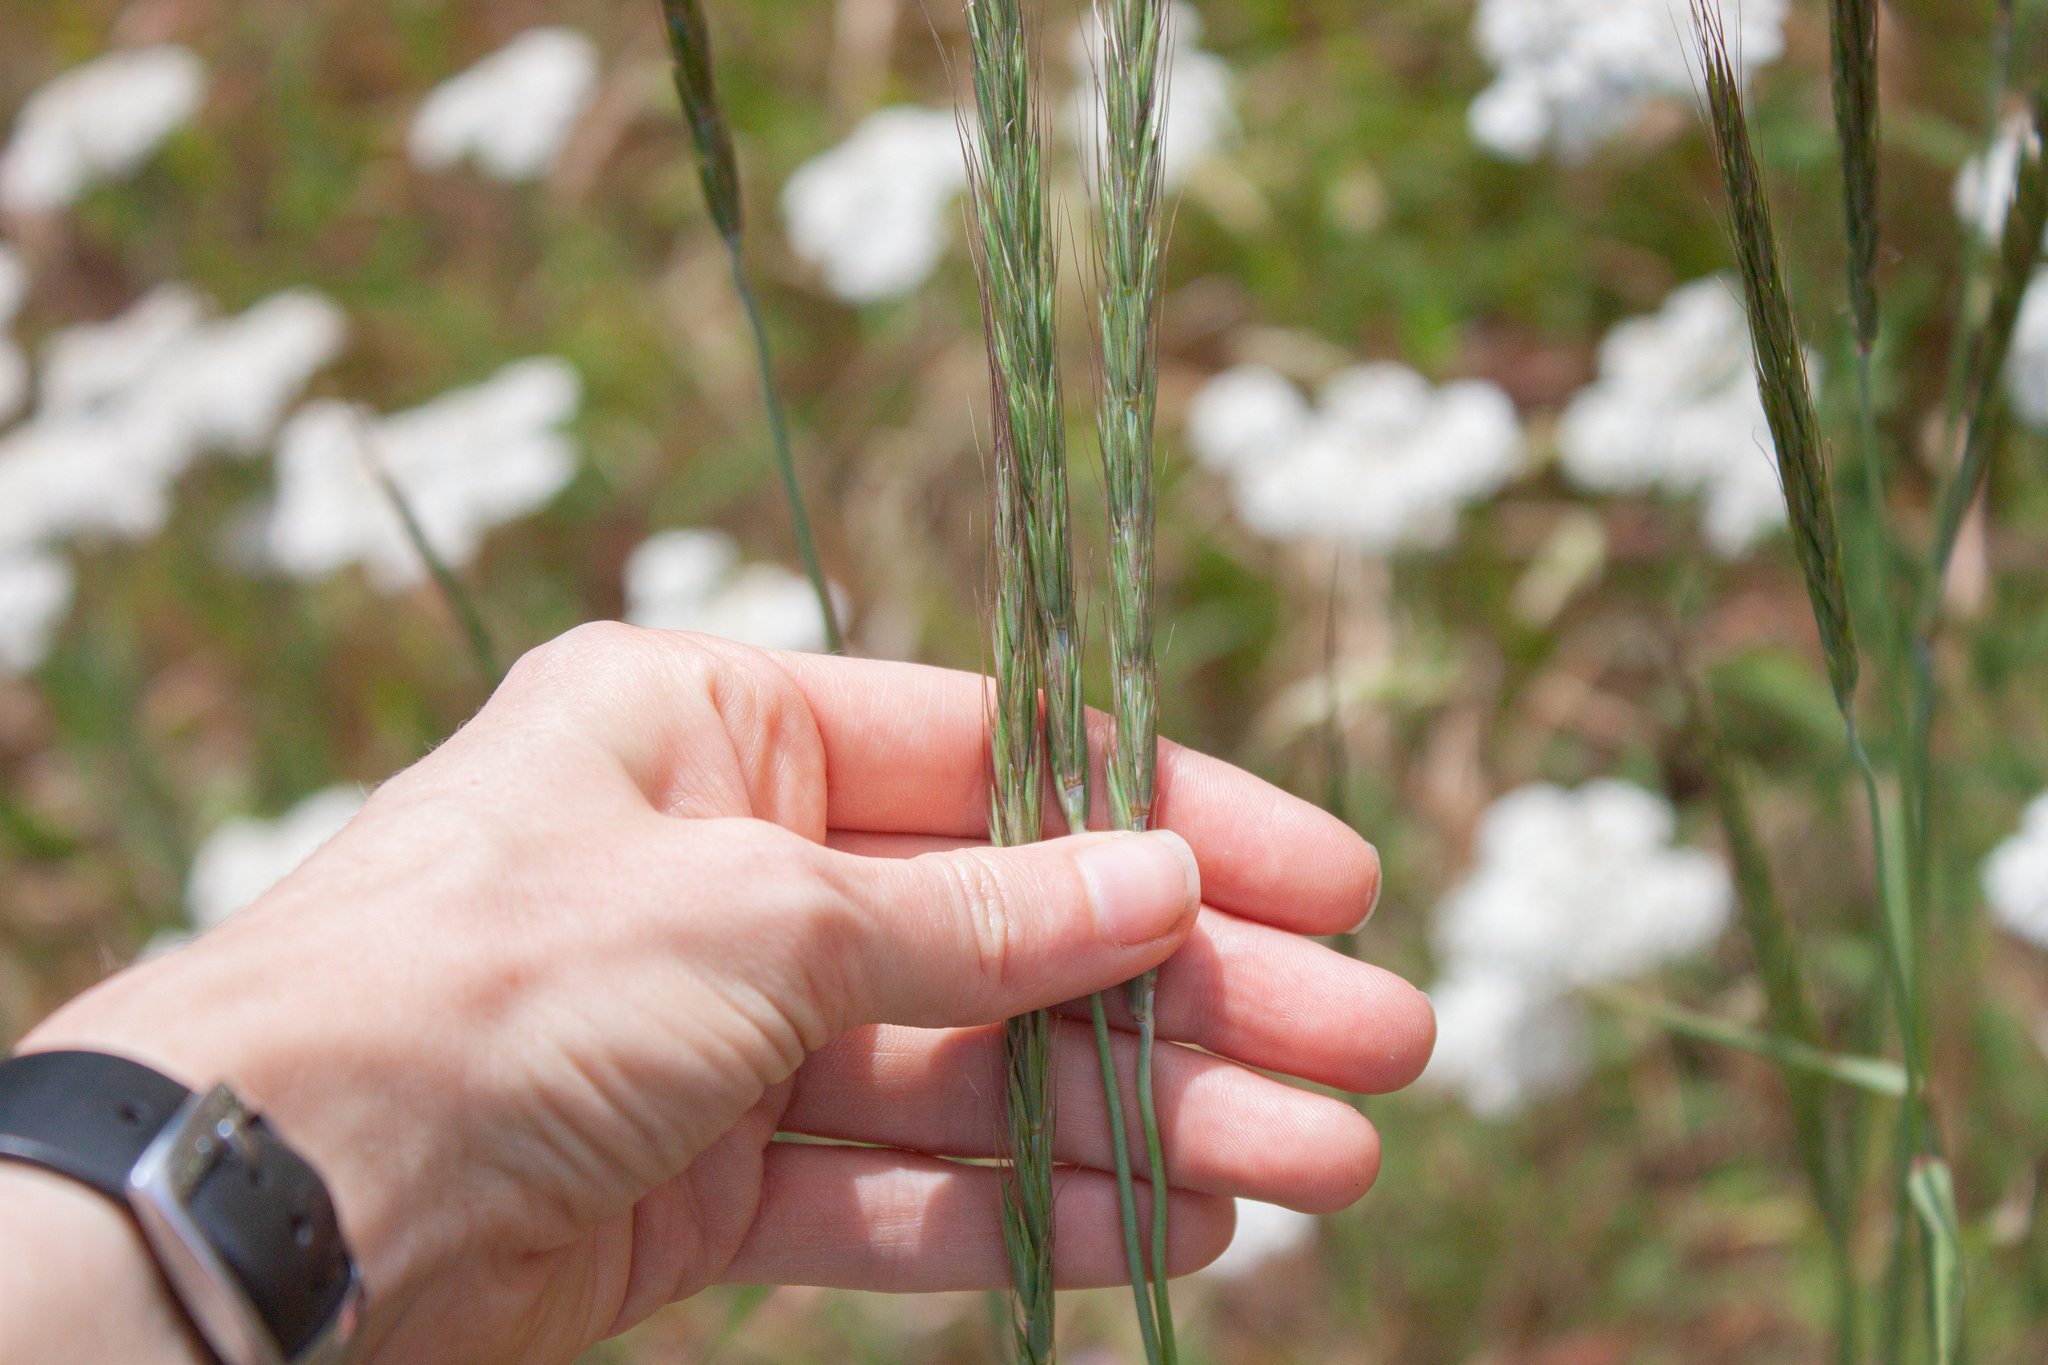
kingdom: Plantae
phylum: Tracheophyta
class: Liliopsida
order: Poales
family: Poaceae
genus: Elymus
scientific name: Elymus glaucus
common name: Blue wild rye
